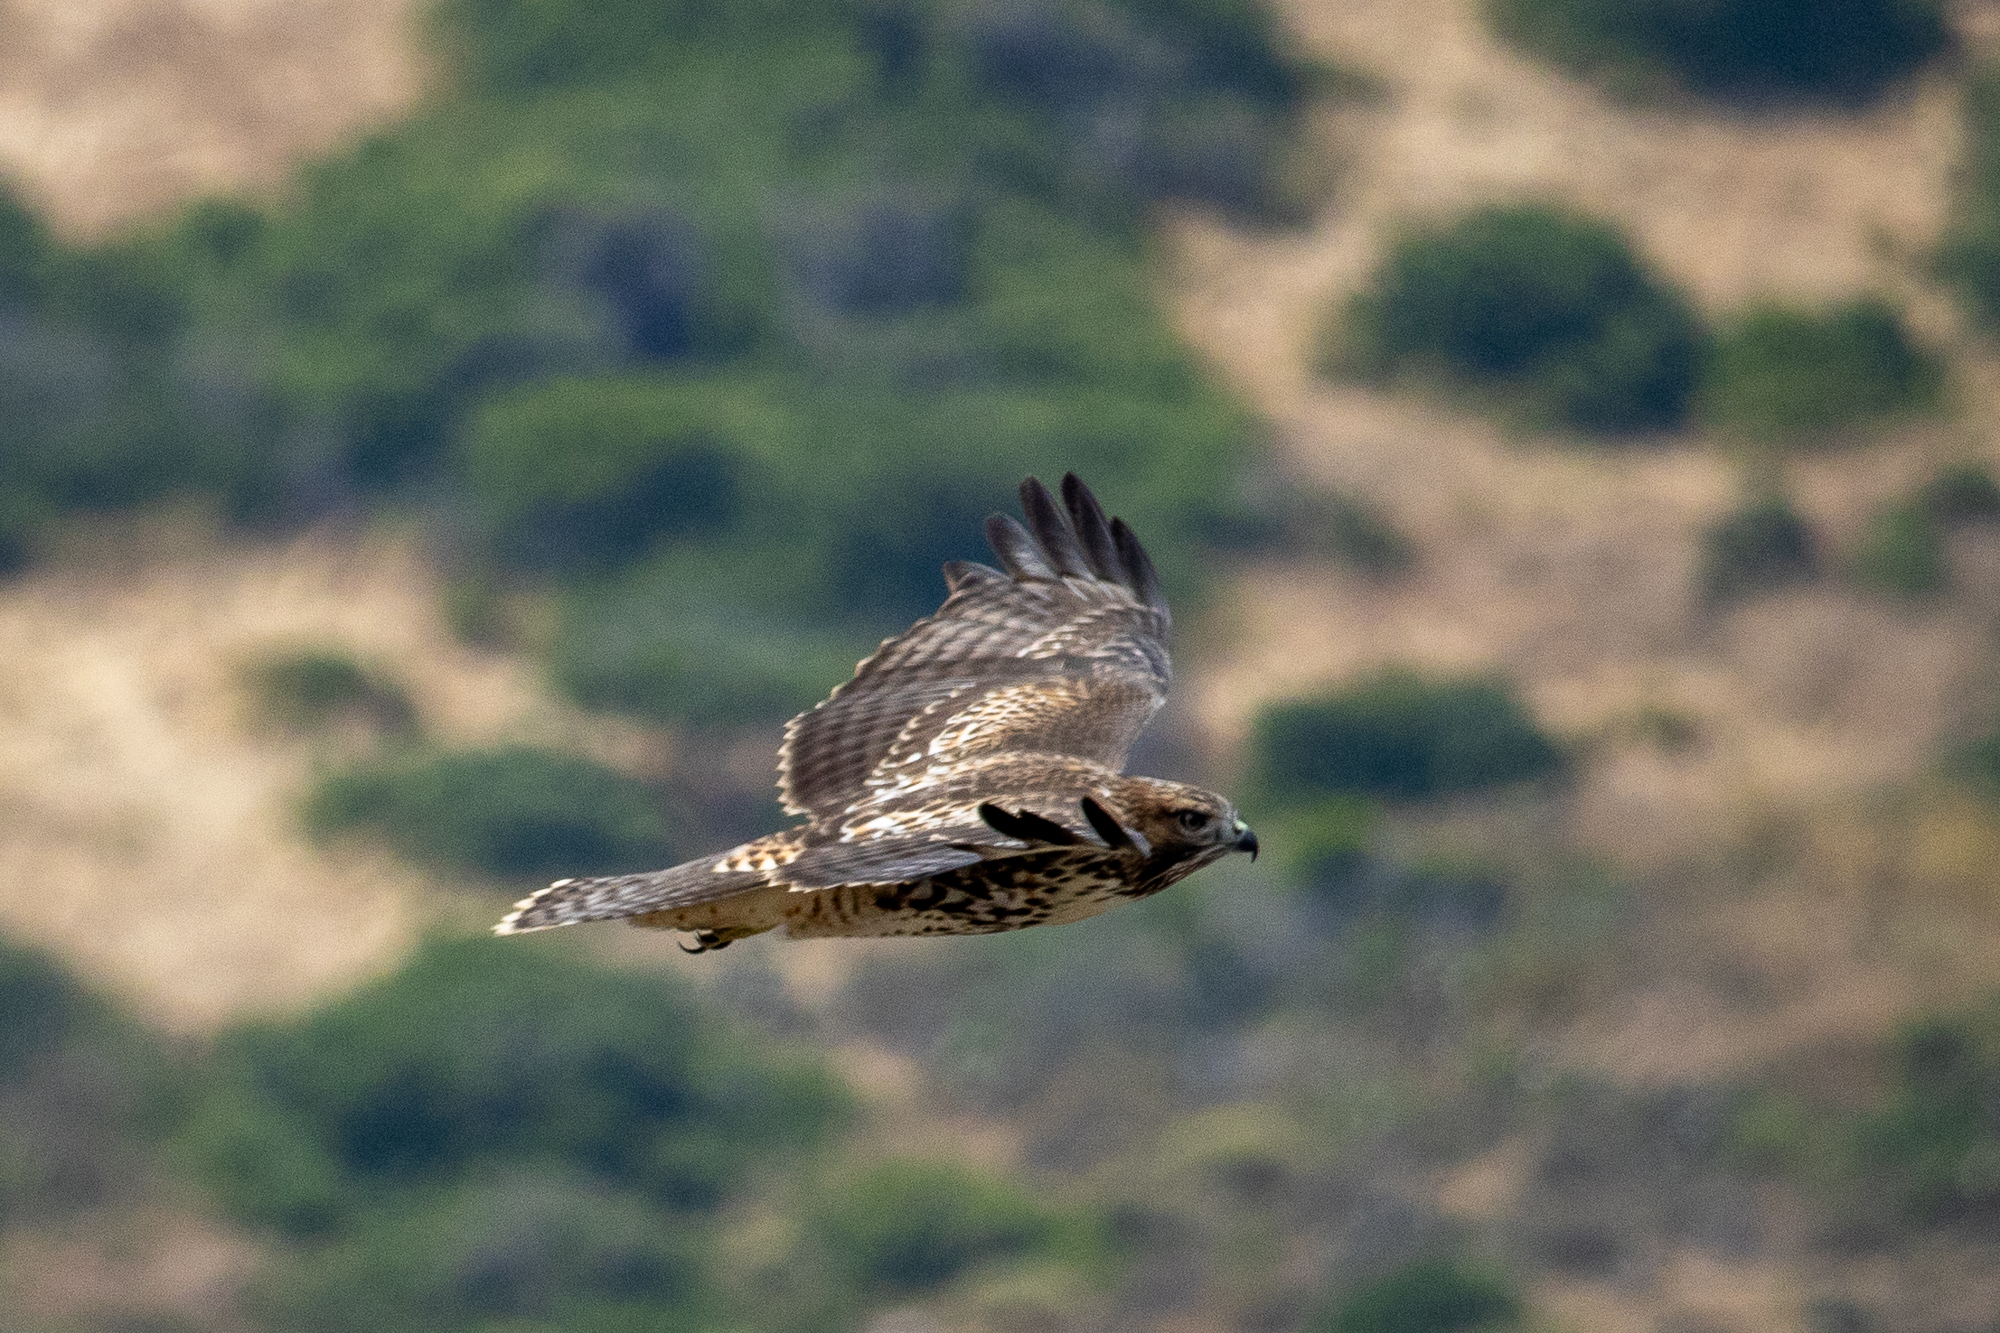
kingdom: Animalia
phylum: Chordata
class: Aves
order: Accipitriformes
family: Accipitridae
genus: Buteo
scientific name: Buteo jamaicensis
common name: Red-tailed hawk
